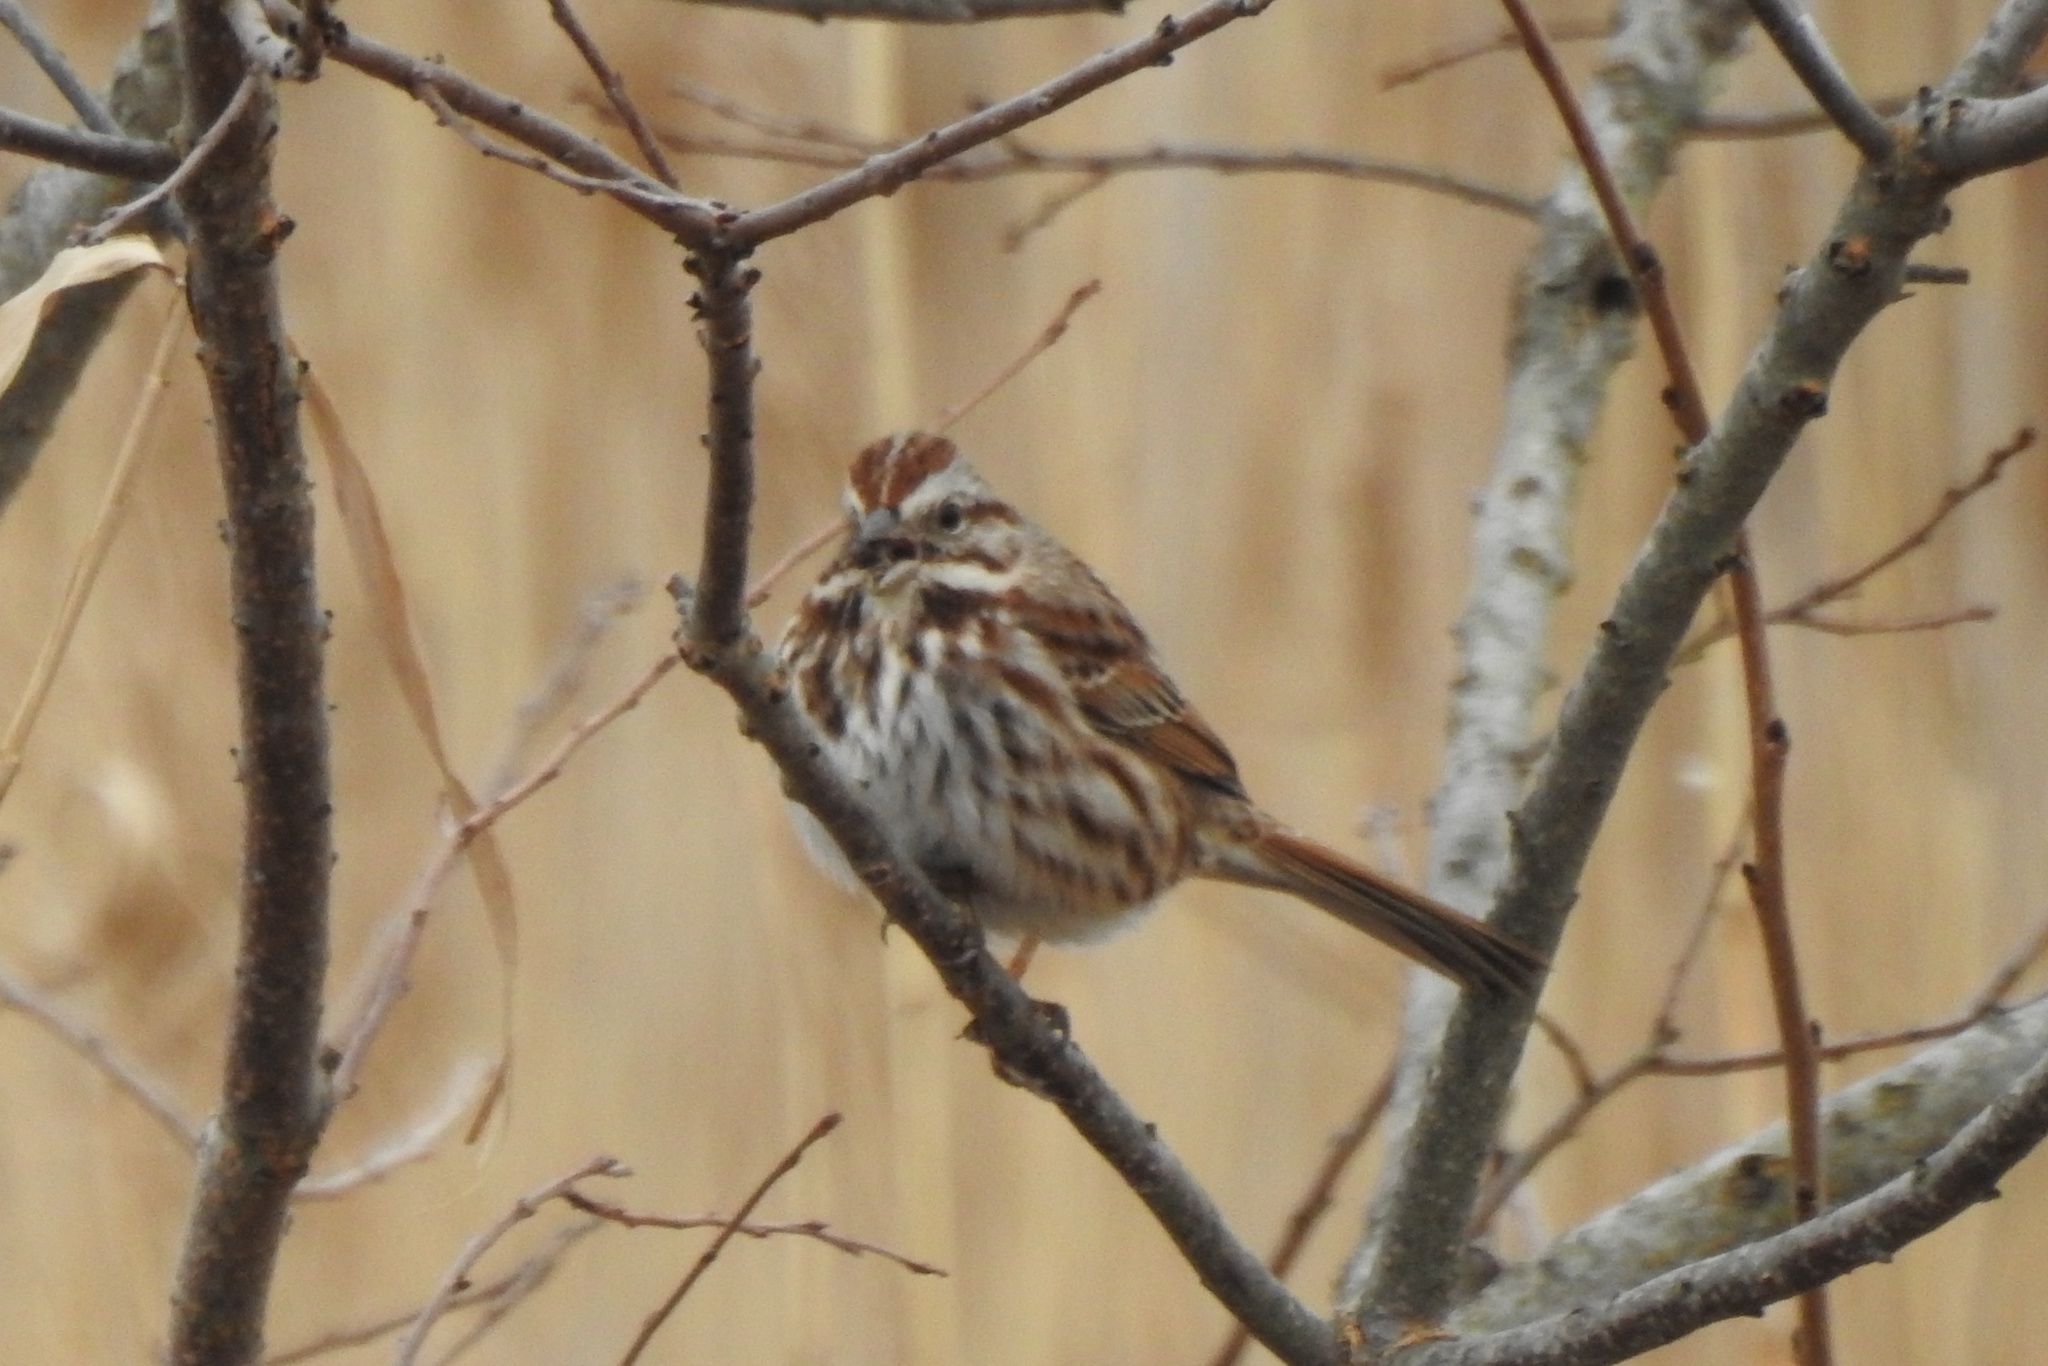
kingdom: Animalia
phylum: Chordata
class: Aves
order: Passeriformes
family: Passerellidae
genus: Melospiza
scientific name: Melospiza melodia
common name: Song sparrow
